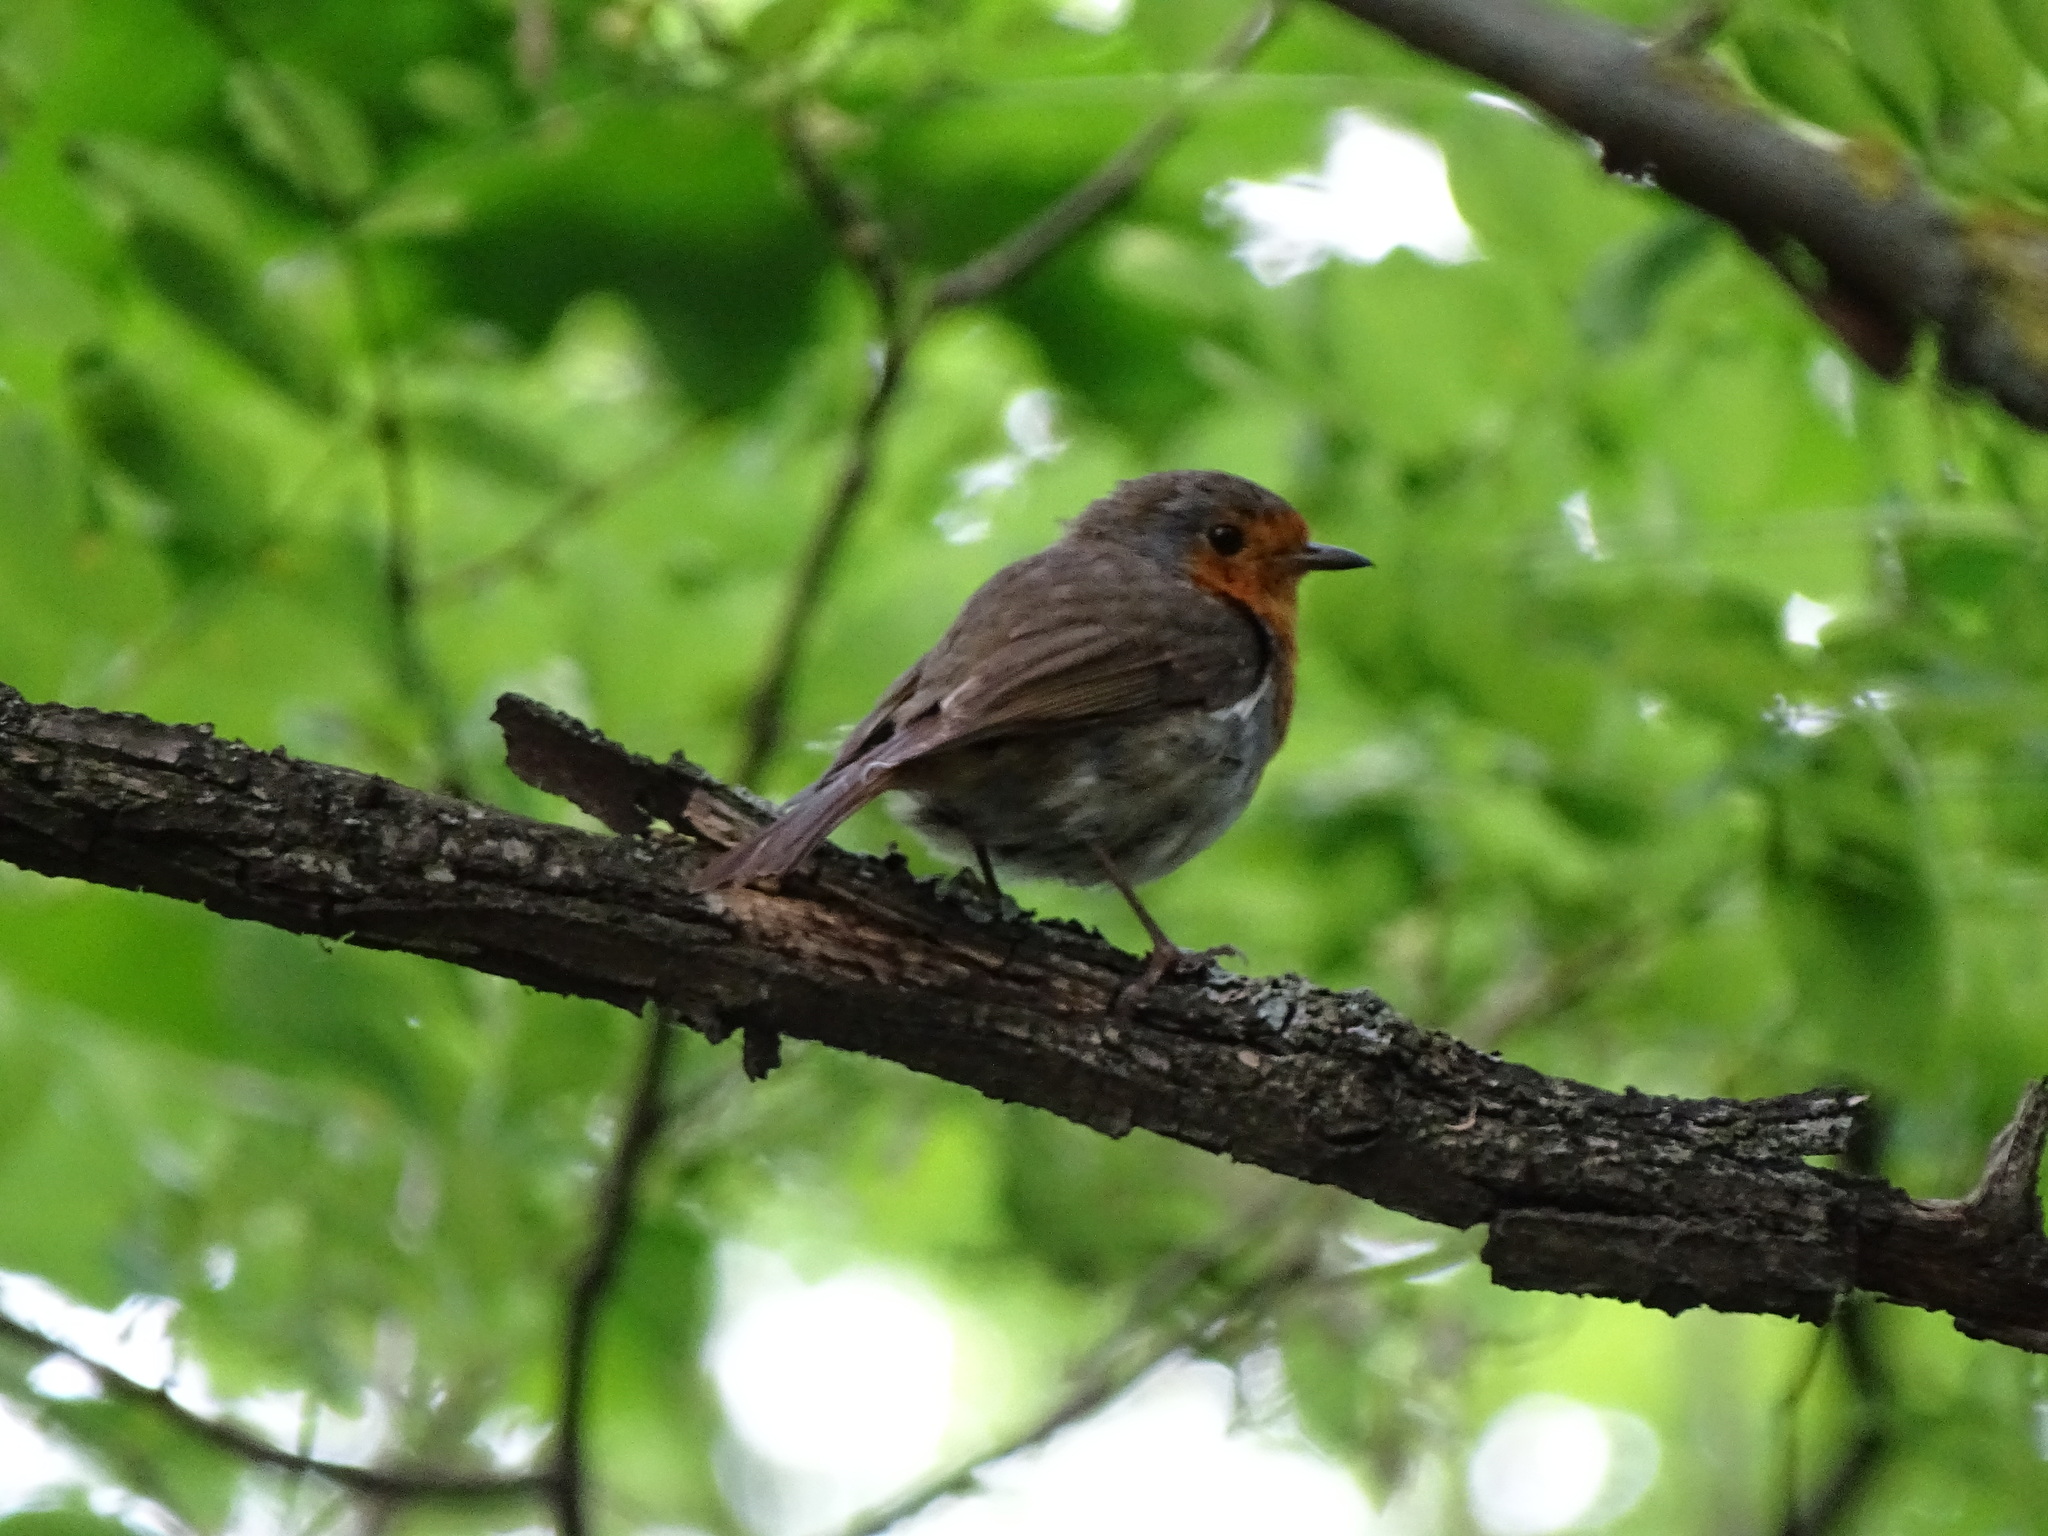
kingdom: Animalia
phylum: Chordata
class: Aves
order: Passeriformes
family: Muscicapidae
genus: Erithacus
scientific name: Erithacus rubecula
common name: European robin
